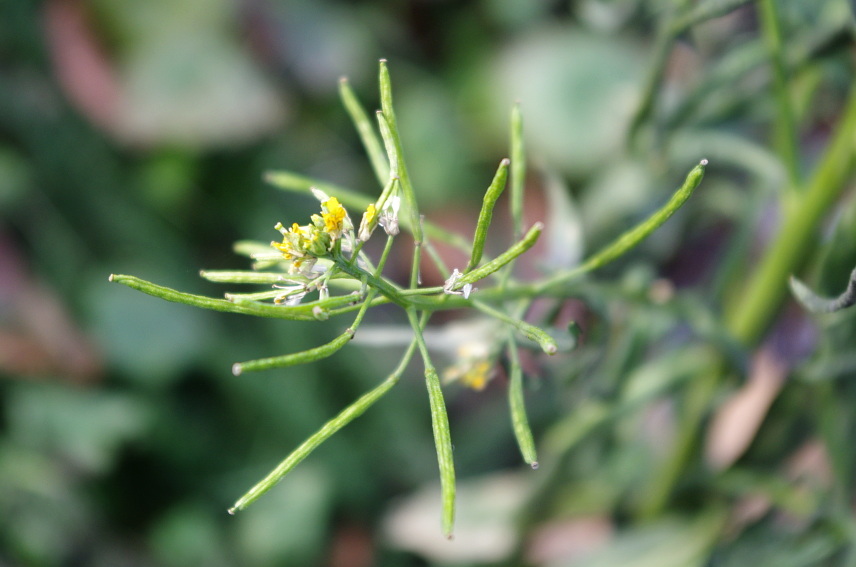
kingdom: Plantae
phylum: Tracheophyta
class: Magnoliopsida
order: Brassicales
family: Brassicaceae
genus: Erysimum
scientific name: Erysimum cheiranthoides
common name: Treacle mustard
